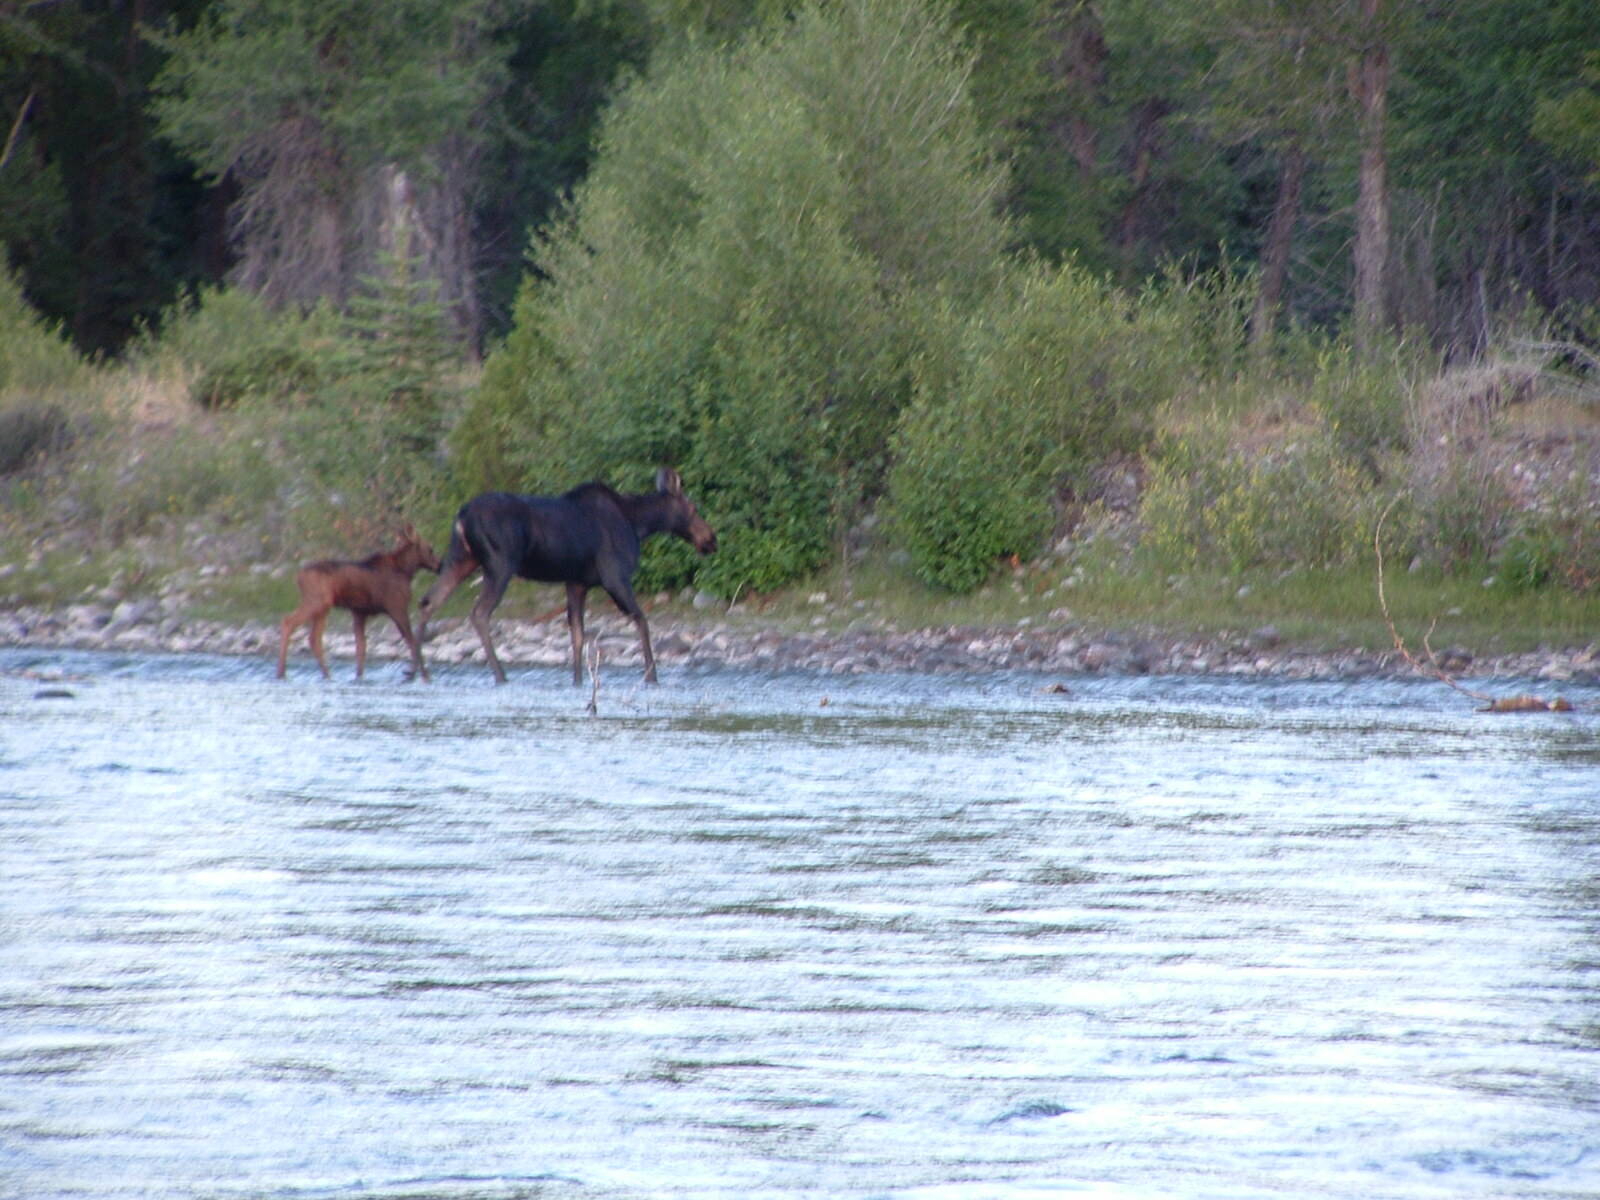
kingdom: Animalia
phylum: Chordata
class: Mammalia
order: Artiodactyla
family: Cervidae
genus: Alces
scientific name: Alces alces
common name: Moose
